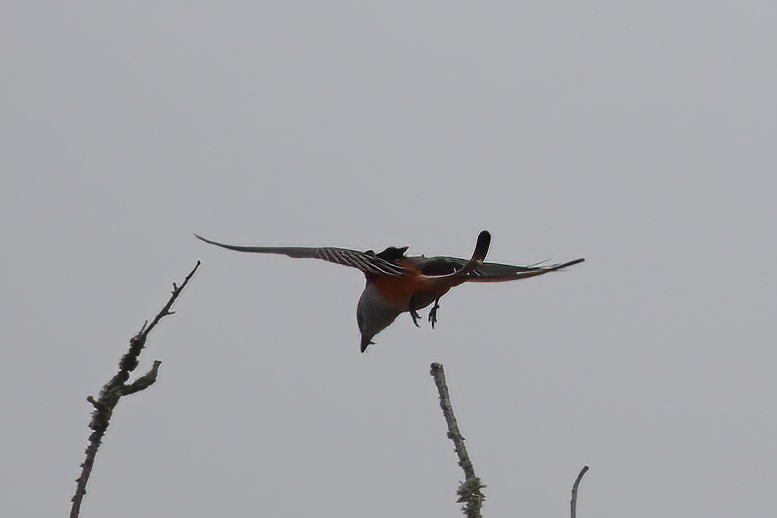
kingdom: Animalia
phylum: Chordata
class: Aves
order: Passeriformes
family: Tyrannidae
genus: Tyrannus
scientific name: Tyrannus forficatus
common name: Scissor-tailed flycatcher
